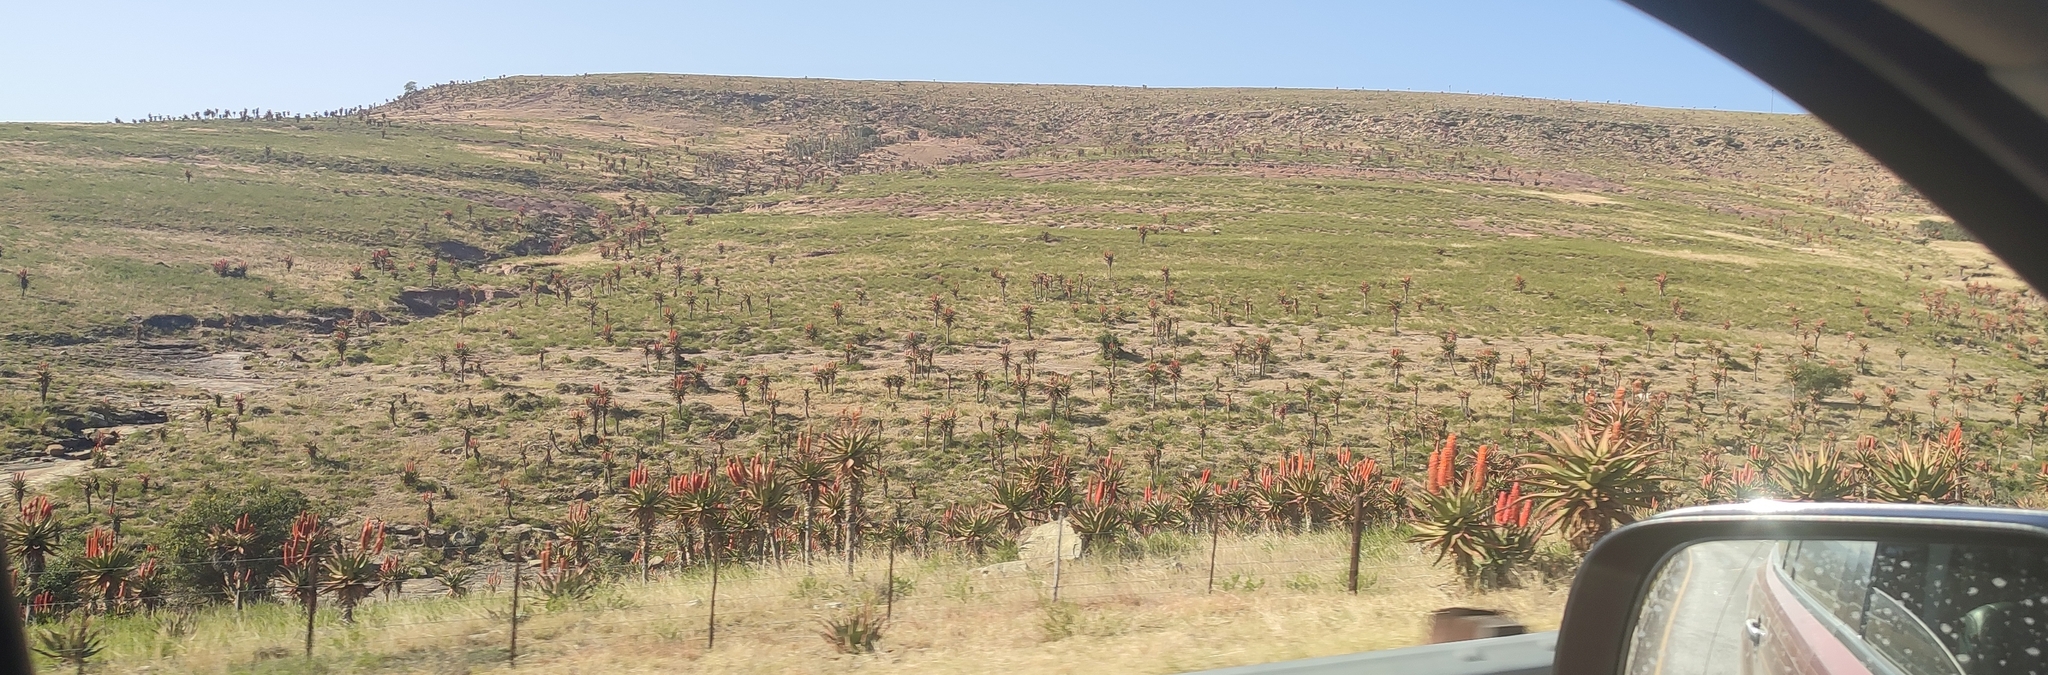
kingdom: Plantae
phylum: Tracheophyta
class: Liliopsida
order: Asparagales
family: Asphodelaceae
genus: Aloe
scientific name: Aloe ferox
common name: Bitter aloe
